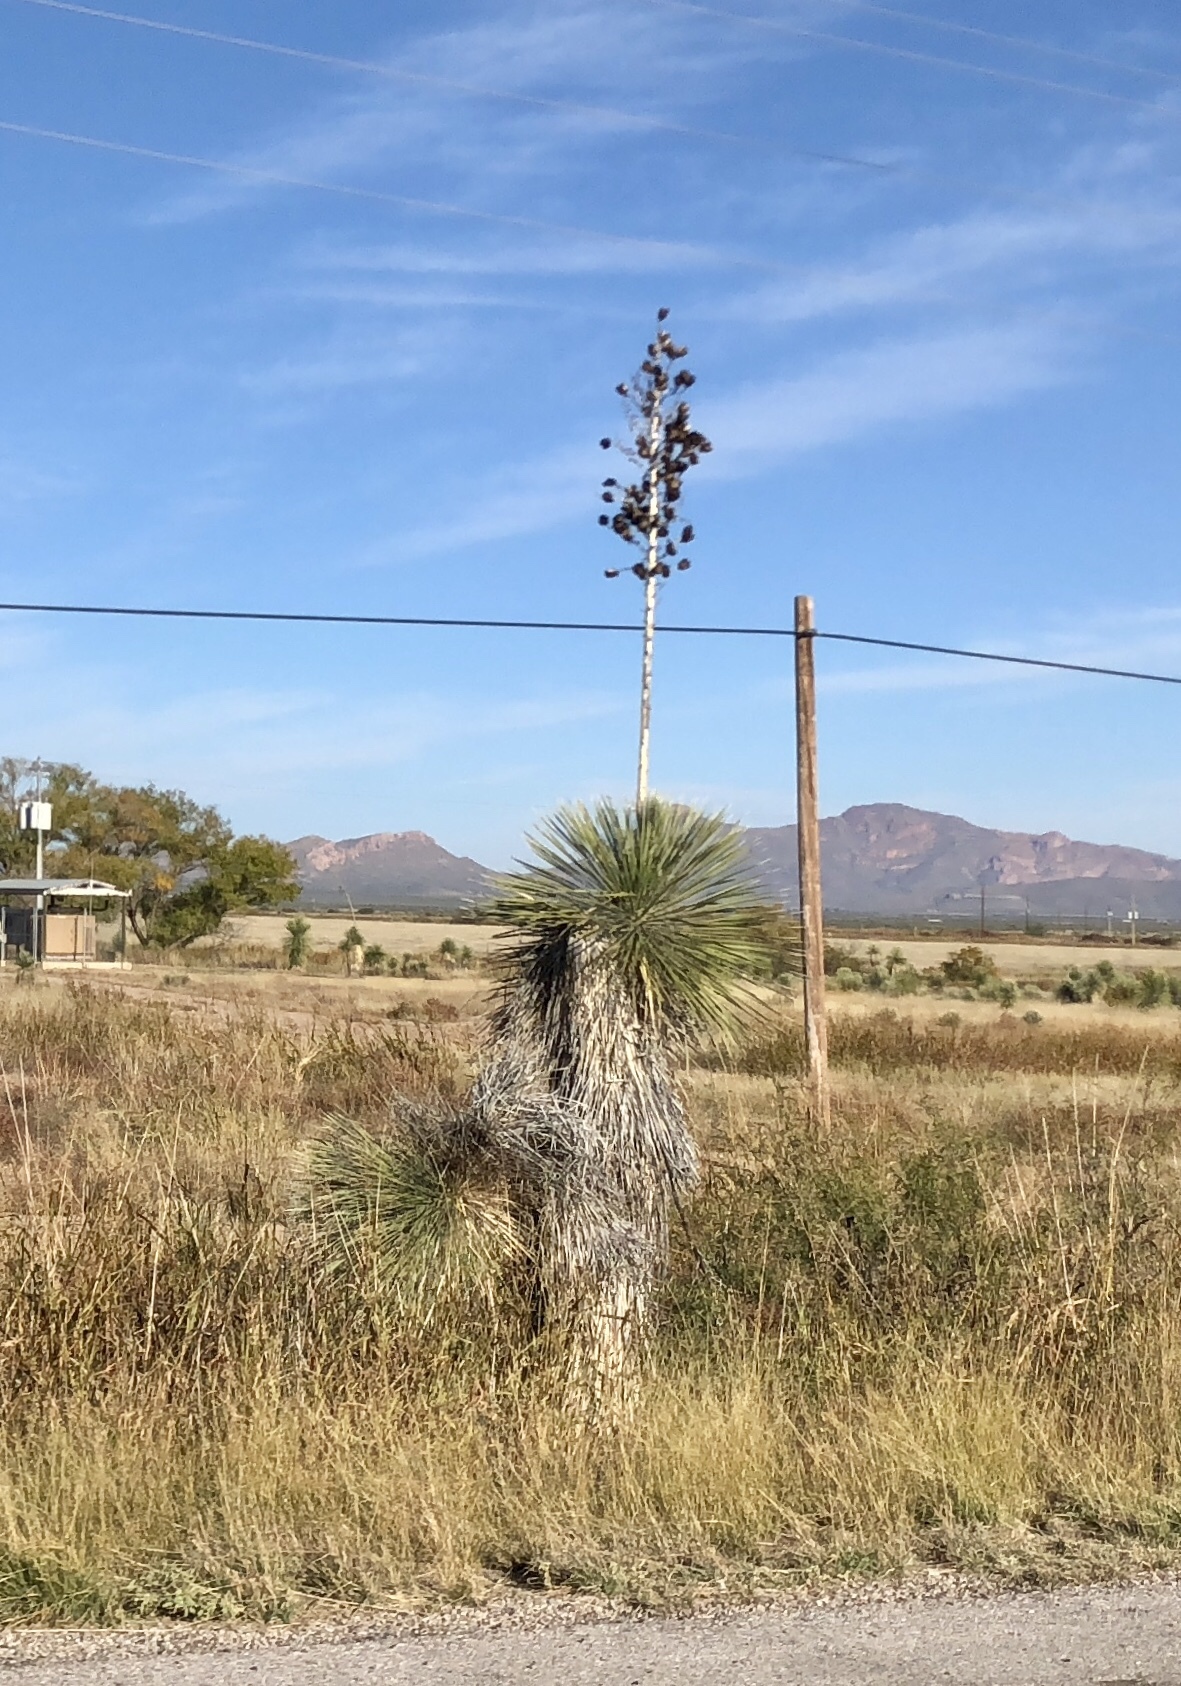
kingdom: Plantae
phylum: Tracheophyta
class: Liliopsida
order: Asparagales
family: Asparagaceae
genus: Yucca
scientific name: Yucca elata
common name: Palmella
